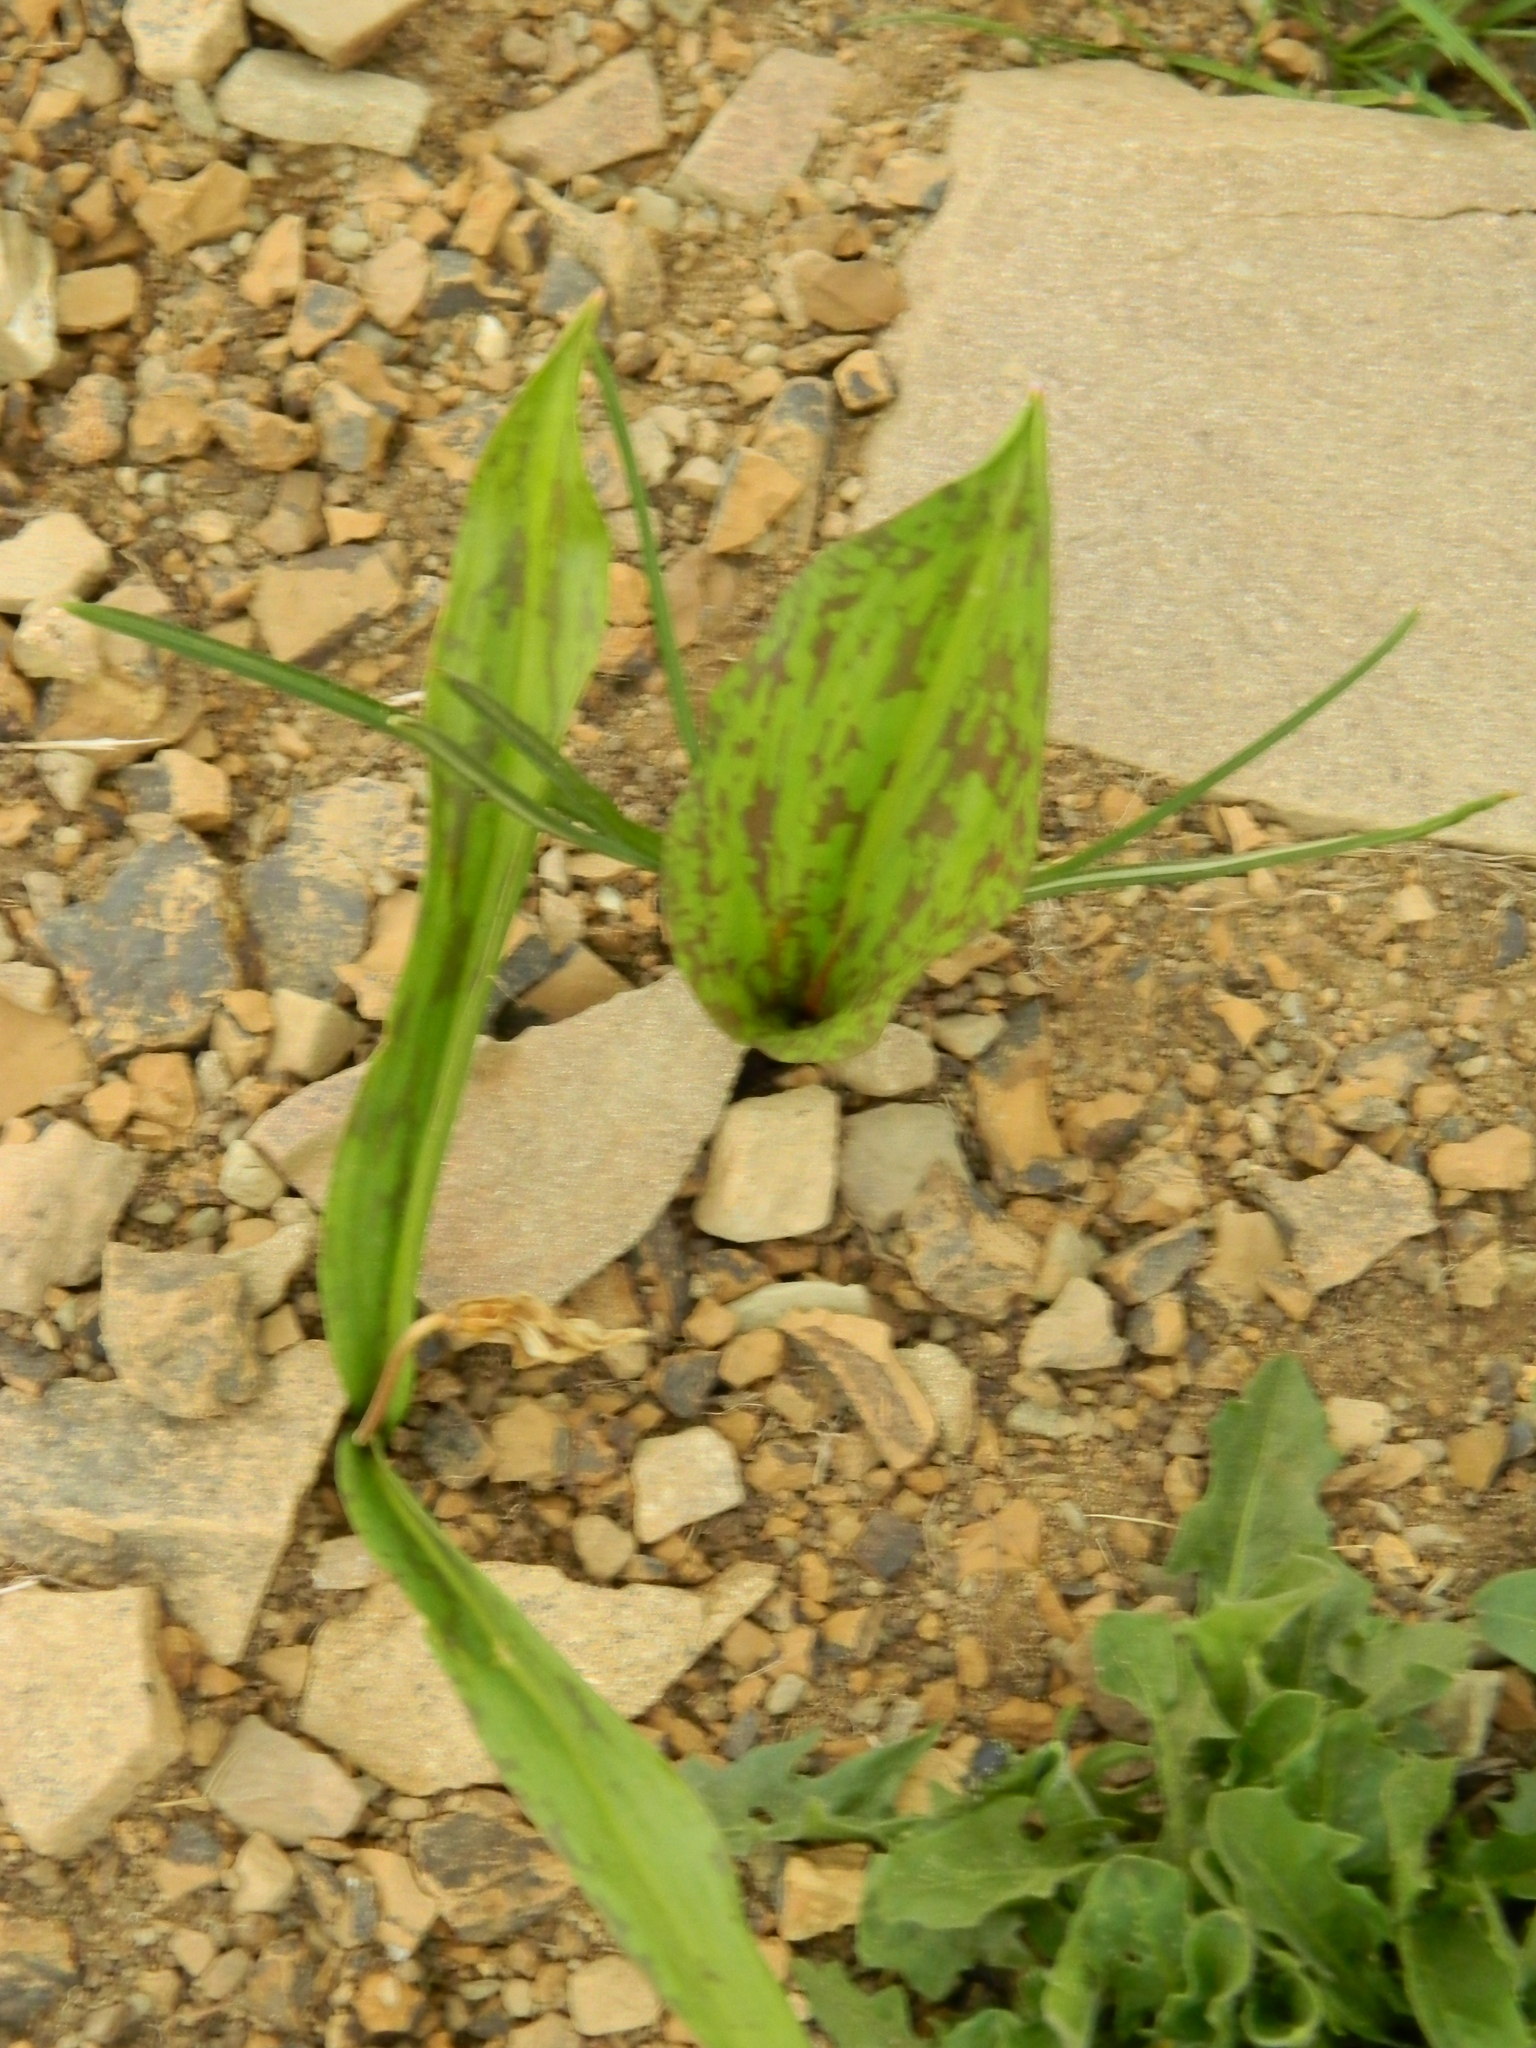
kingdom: Plantae
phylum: Tracheophyta
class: Liliopsida
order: Liliales
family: Liliaceae
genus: Erythronium
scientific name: Erythronium caucasicum
